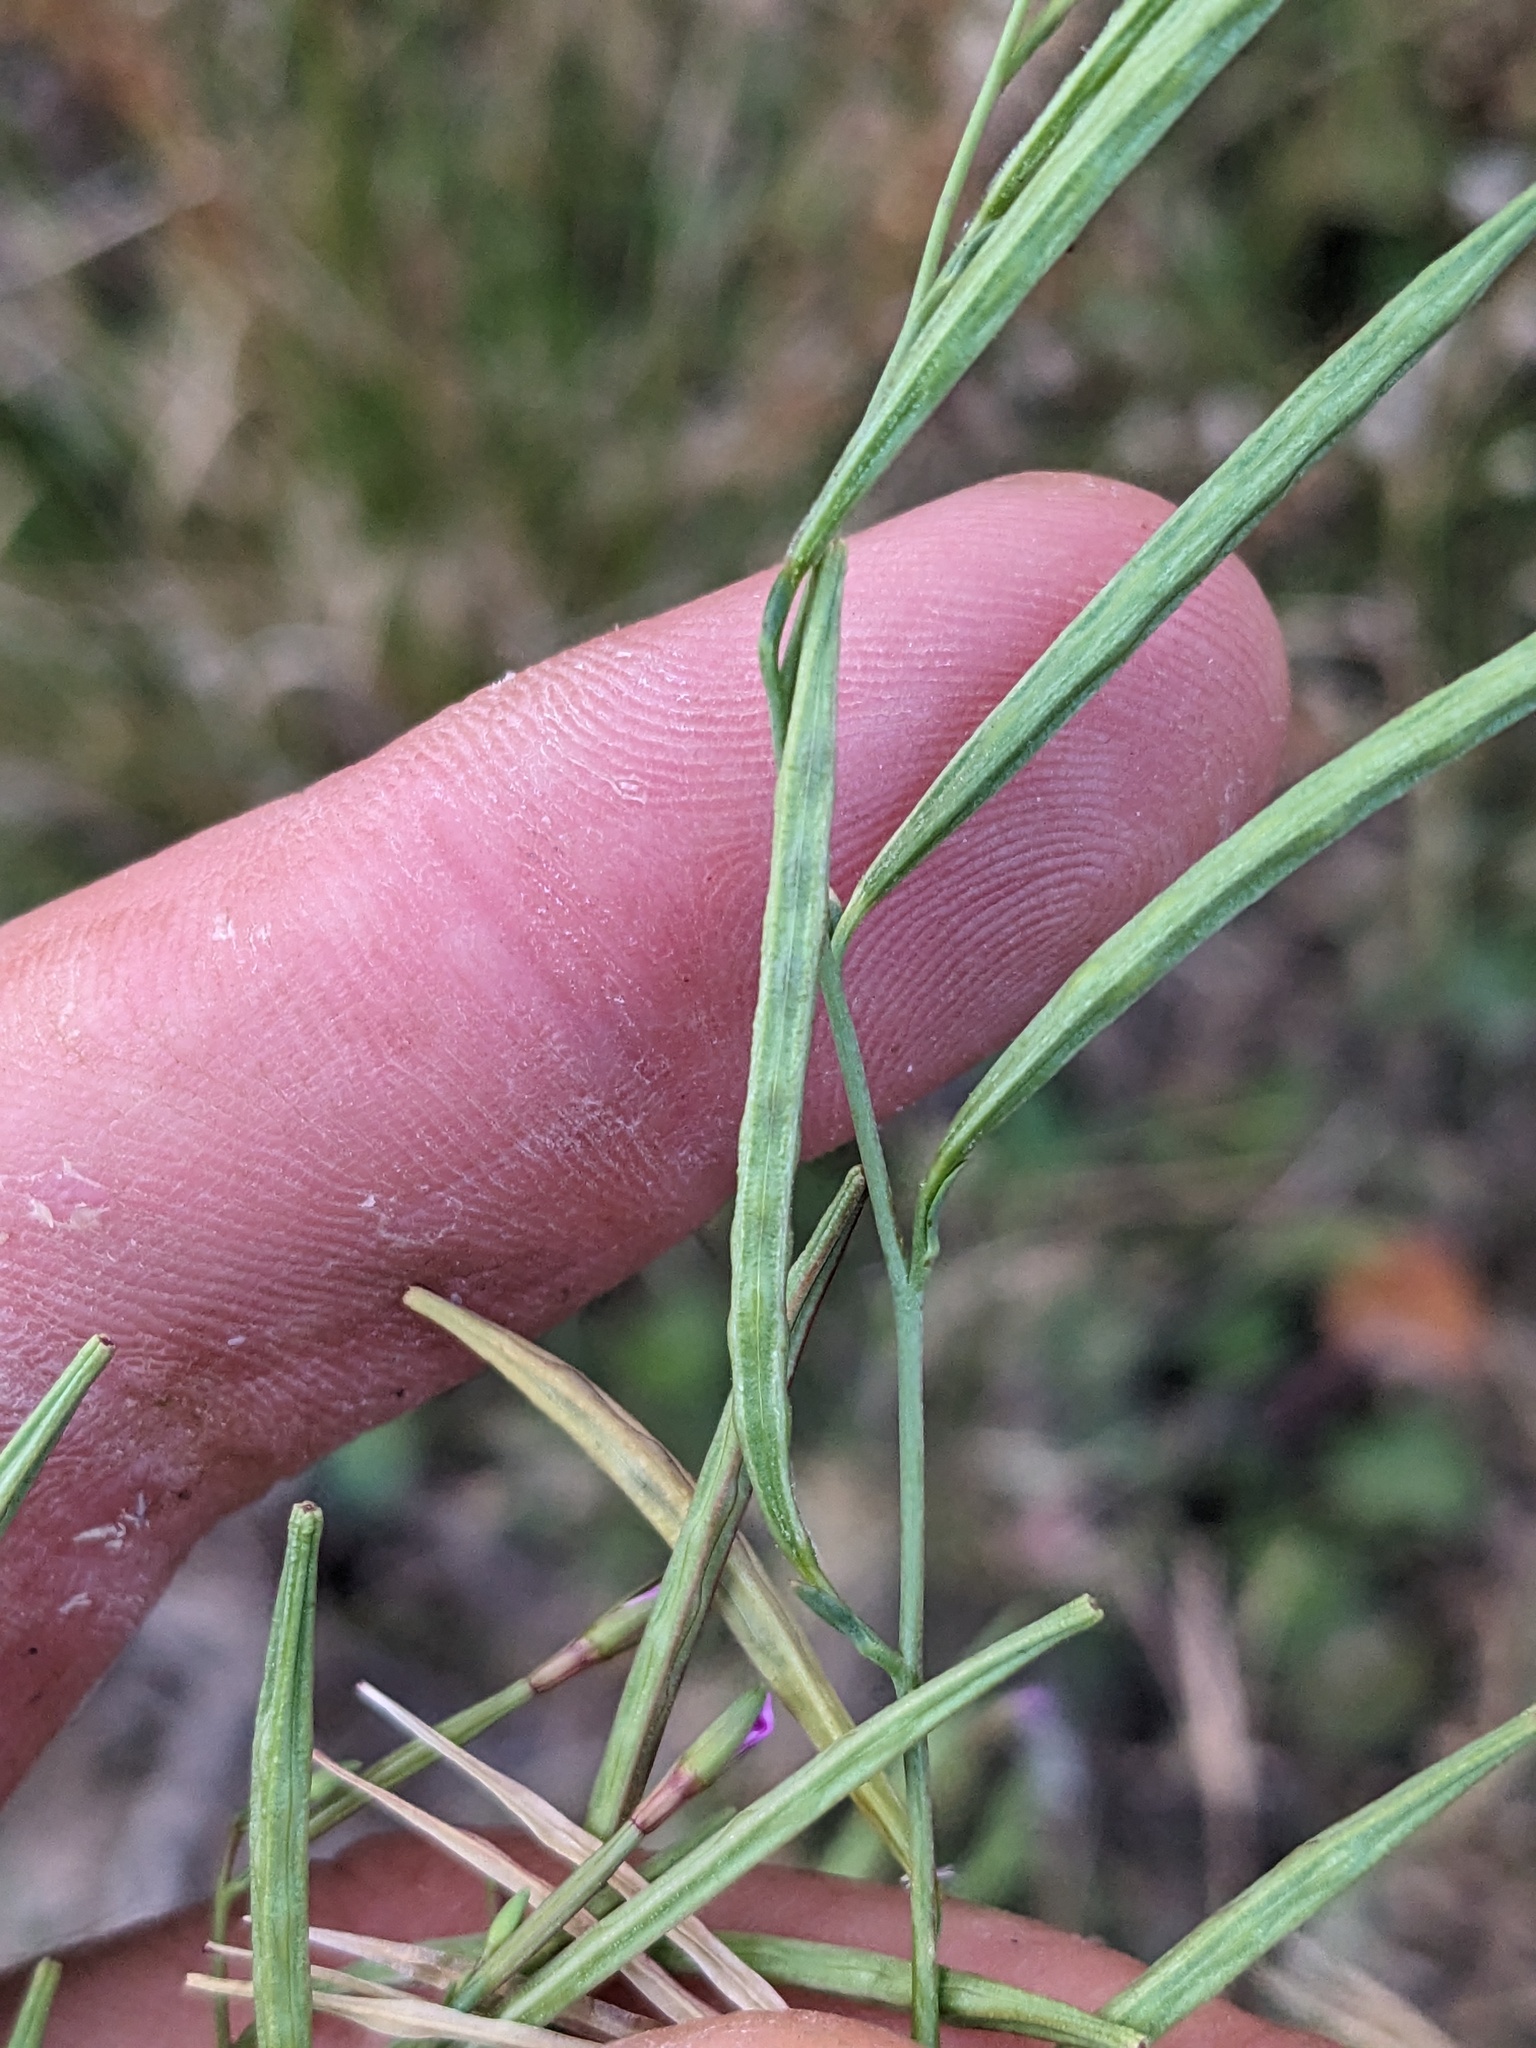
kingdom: Plantae
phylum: Tracheophyta
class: Magnoliopsida
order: Myrtales
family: Onagraceae
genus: Epilobium
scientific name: Epilobium brachycarpum
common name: Annual willowherb
